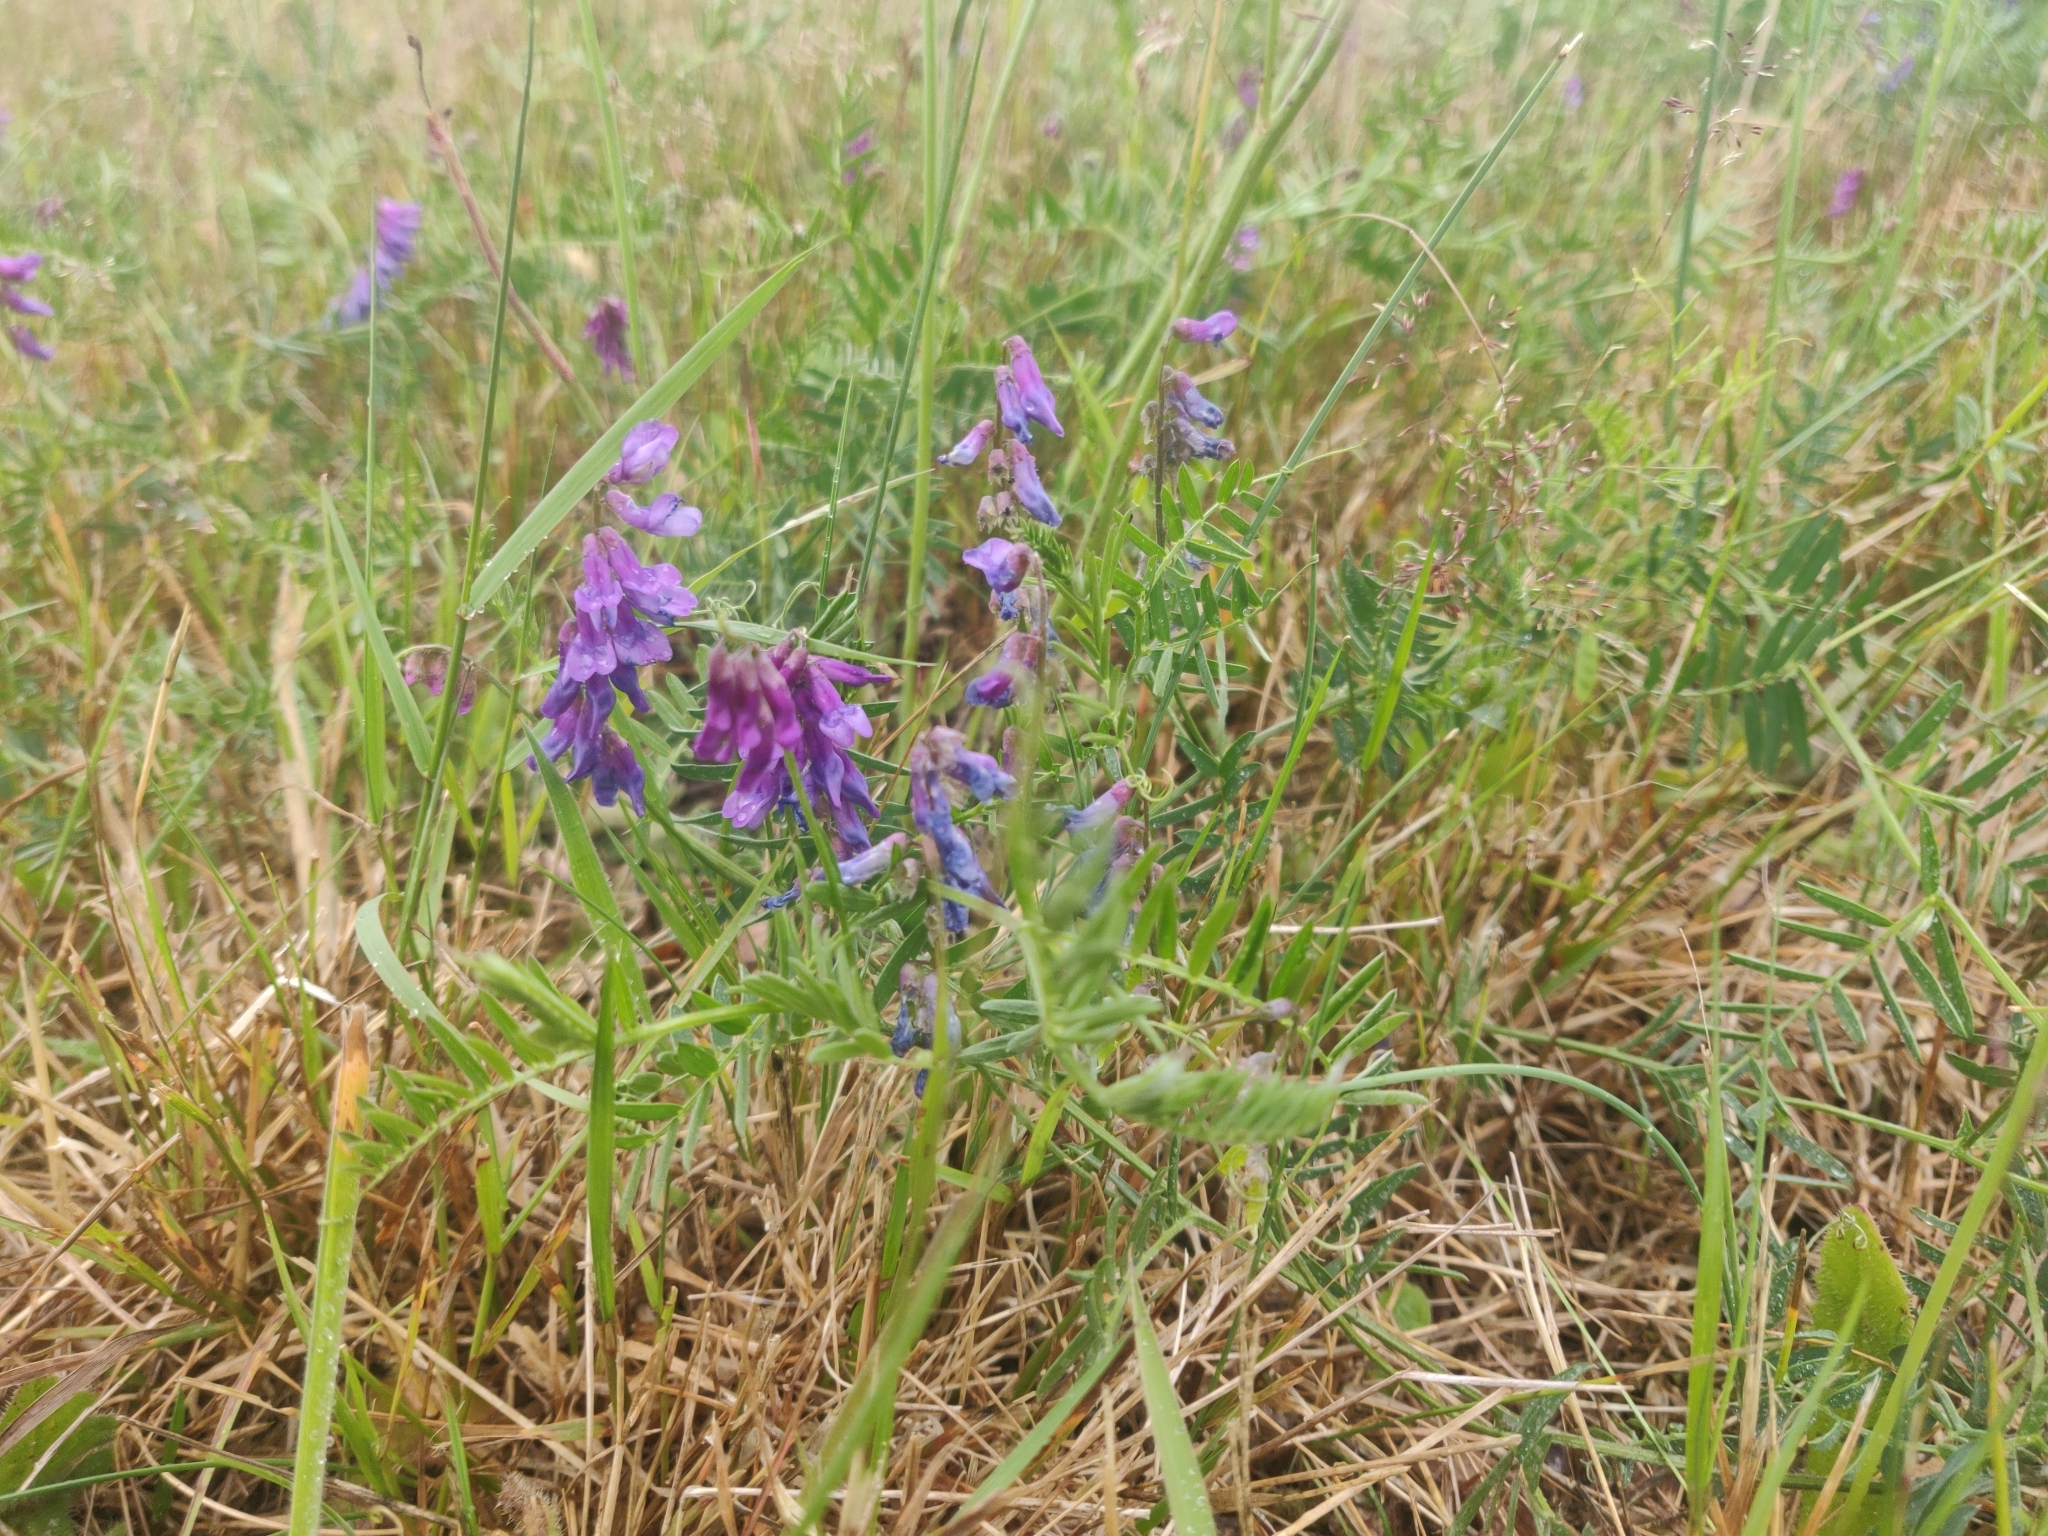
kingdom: Plantae
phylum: Tracheophyta
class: Magnoliopsida
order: Fabales
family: Fabaceae
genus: Vicia
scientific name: Vicia cracca
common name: Bird vetch
